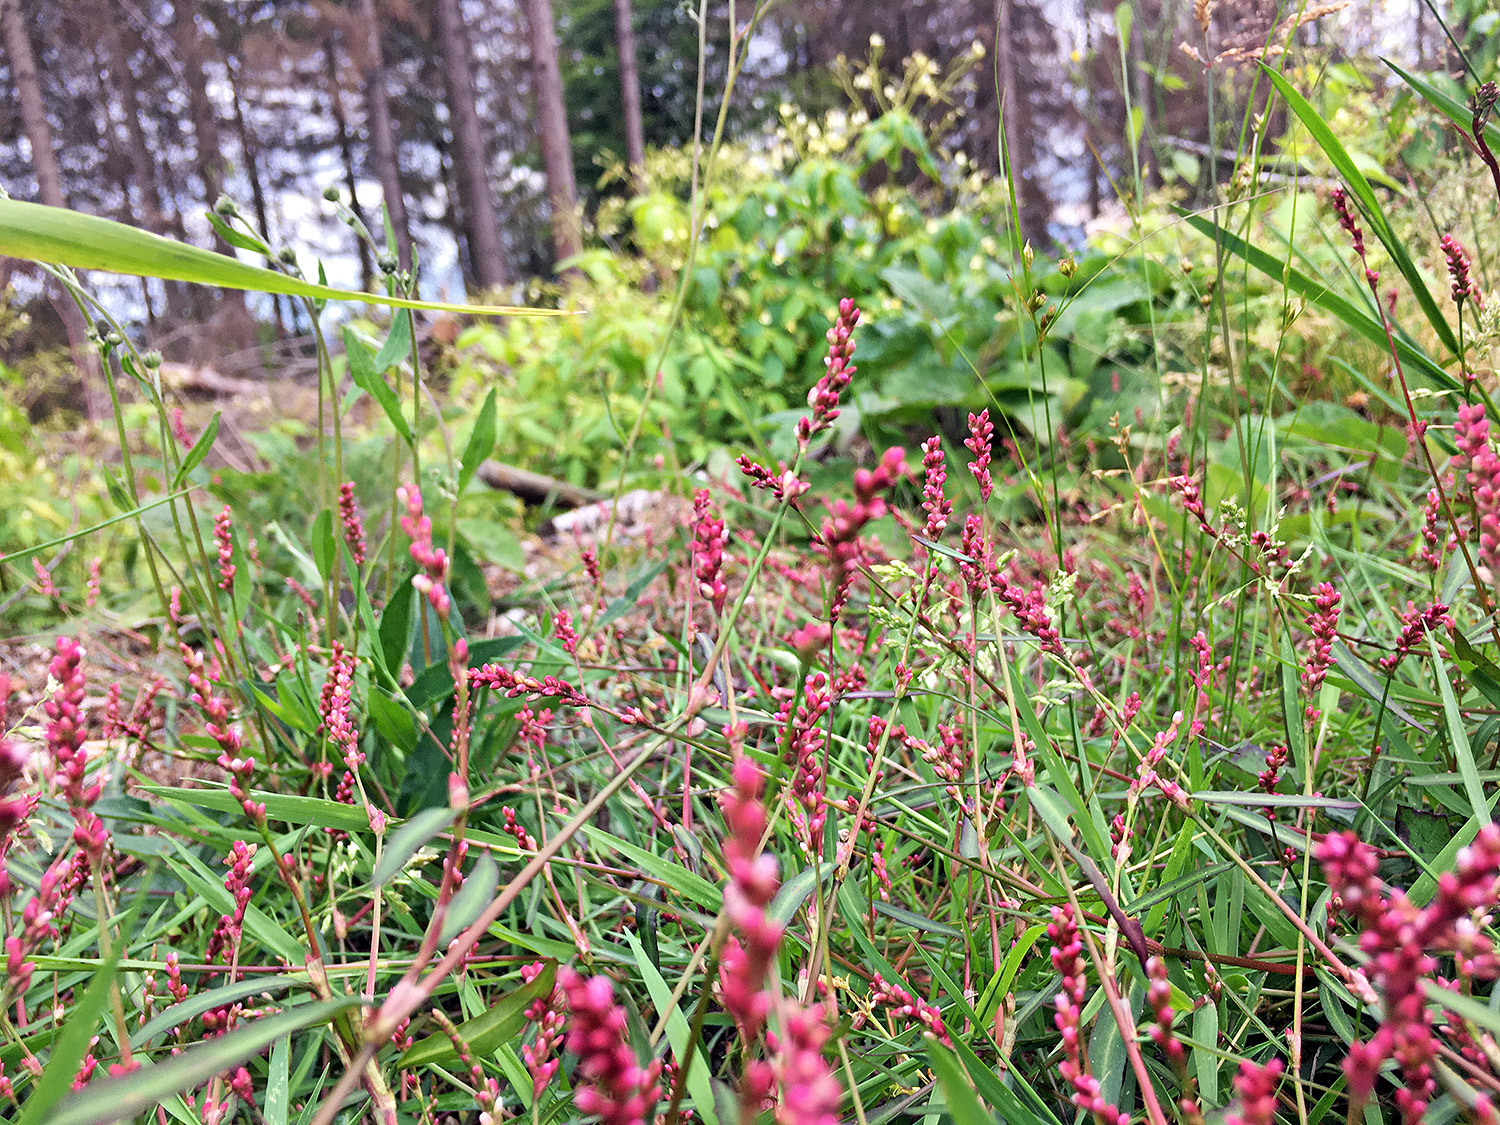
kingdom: Plantae
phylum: Tracheophyta
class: Magnoliopsida
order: Caryophyllales
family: Polygonaceae
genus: Persicaria
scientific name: Persicaria hydropiper
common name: Water-pepper
